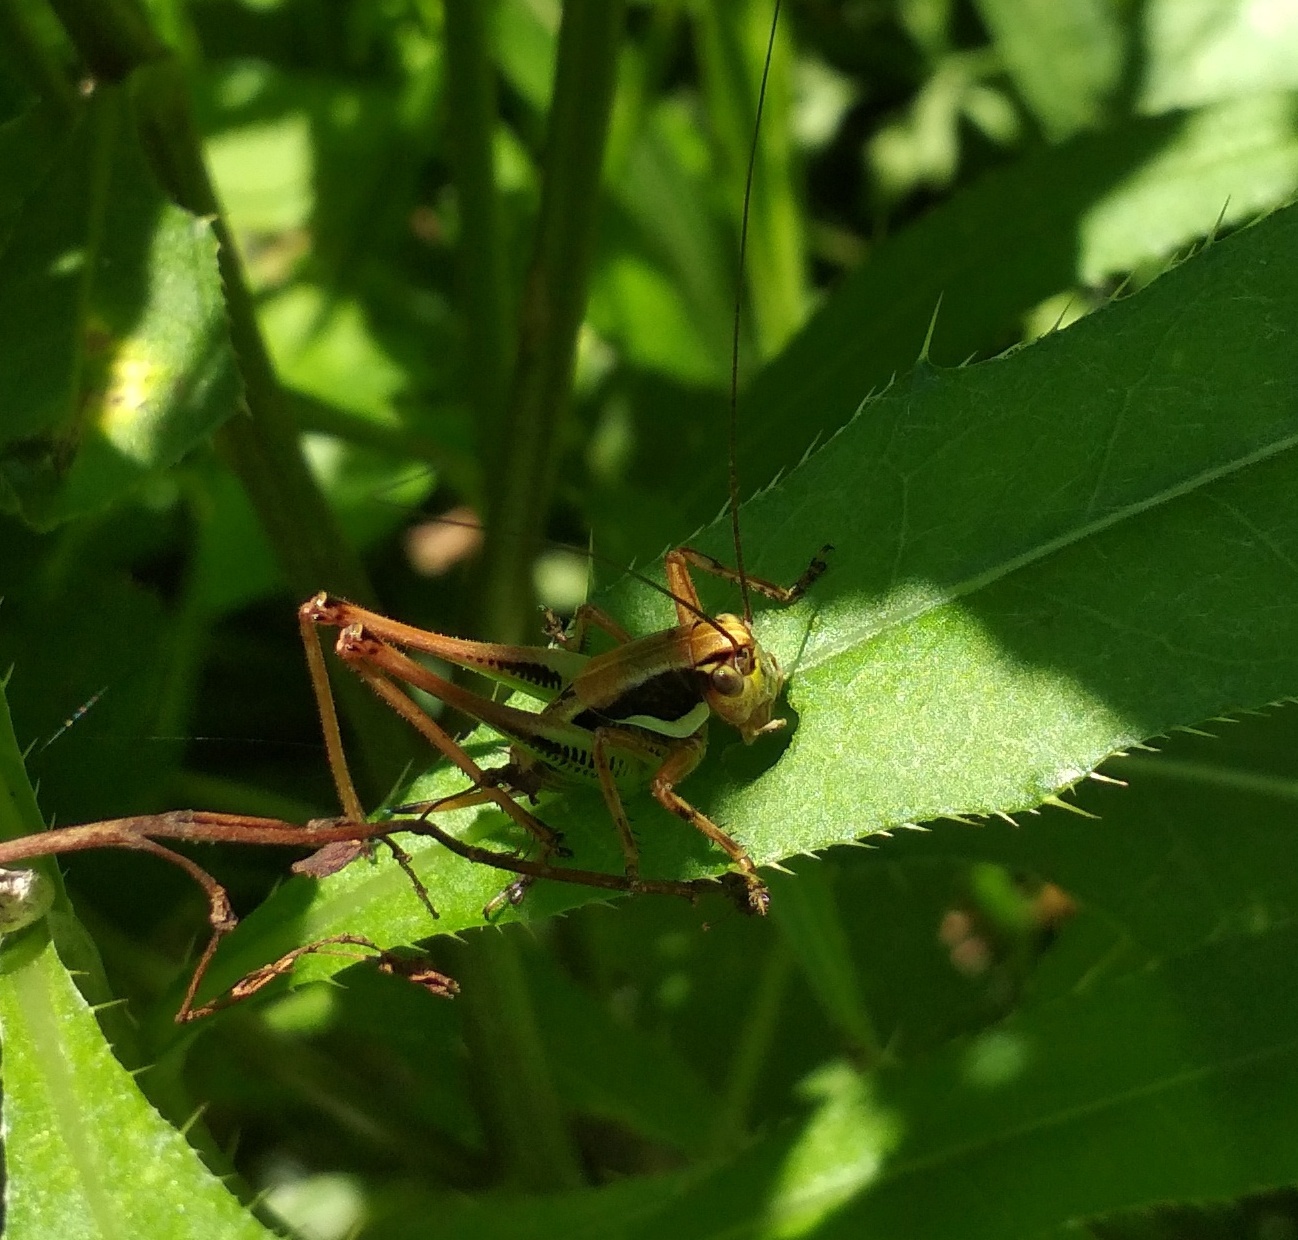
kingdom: Animalia
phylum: Arthropoda
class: Insecta
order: Orthoptera
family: Tettigoniidae
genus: Eupholidoptera
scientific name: Eupholidoptera chabrieri
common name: Chabrier's marbled bush-cricket
